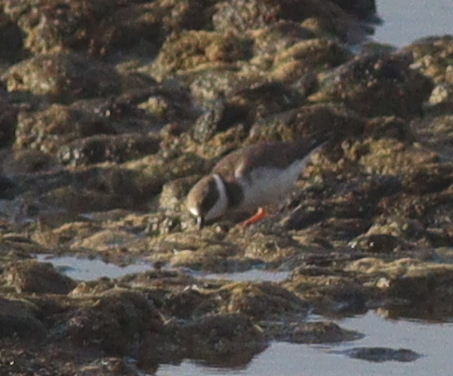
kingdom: Animalia
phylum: Chordata
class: Aves
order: Charadriiformes
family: Charadriidae
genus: Charadrius
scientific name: Charadrius hiaticula
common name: Common ringed plover
